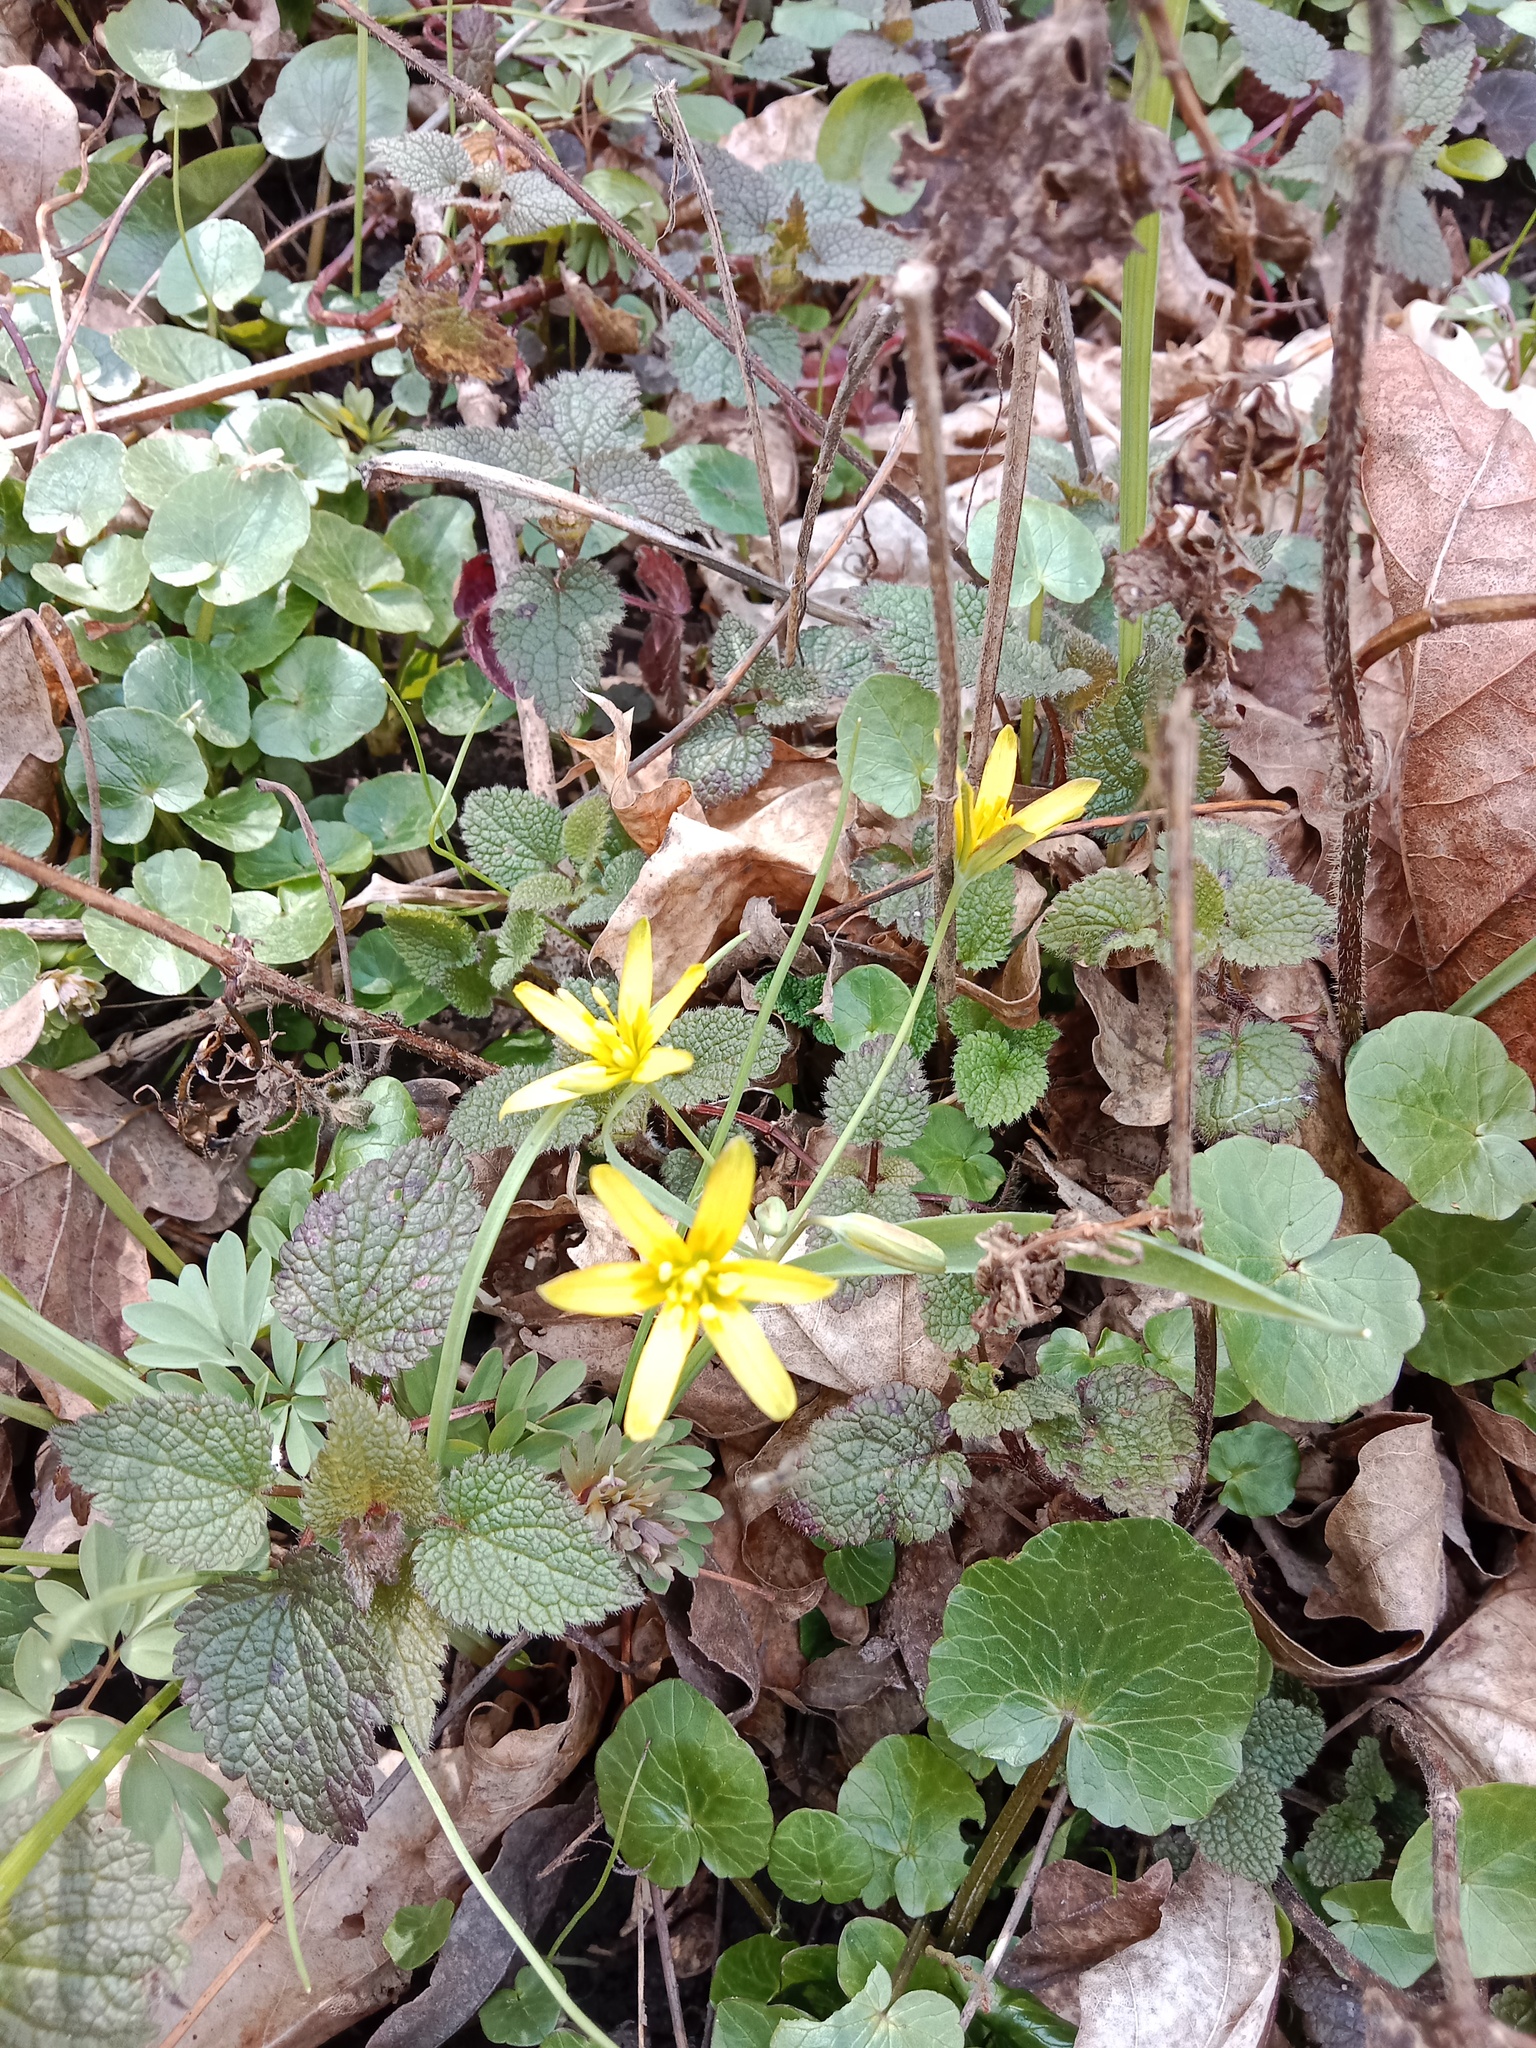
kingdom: Plantae
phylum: Tracheophyta
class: Liliopsida
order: Liliales
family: Liliaceae
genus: Gagea
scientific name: Gagea lutea
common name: Yellow star-of-bethlehem
